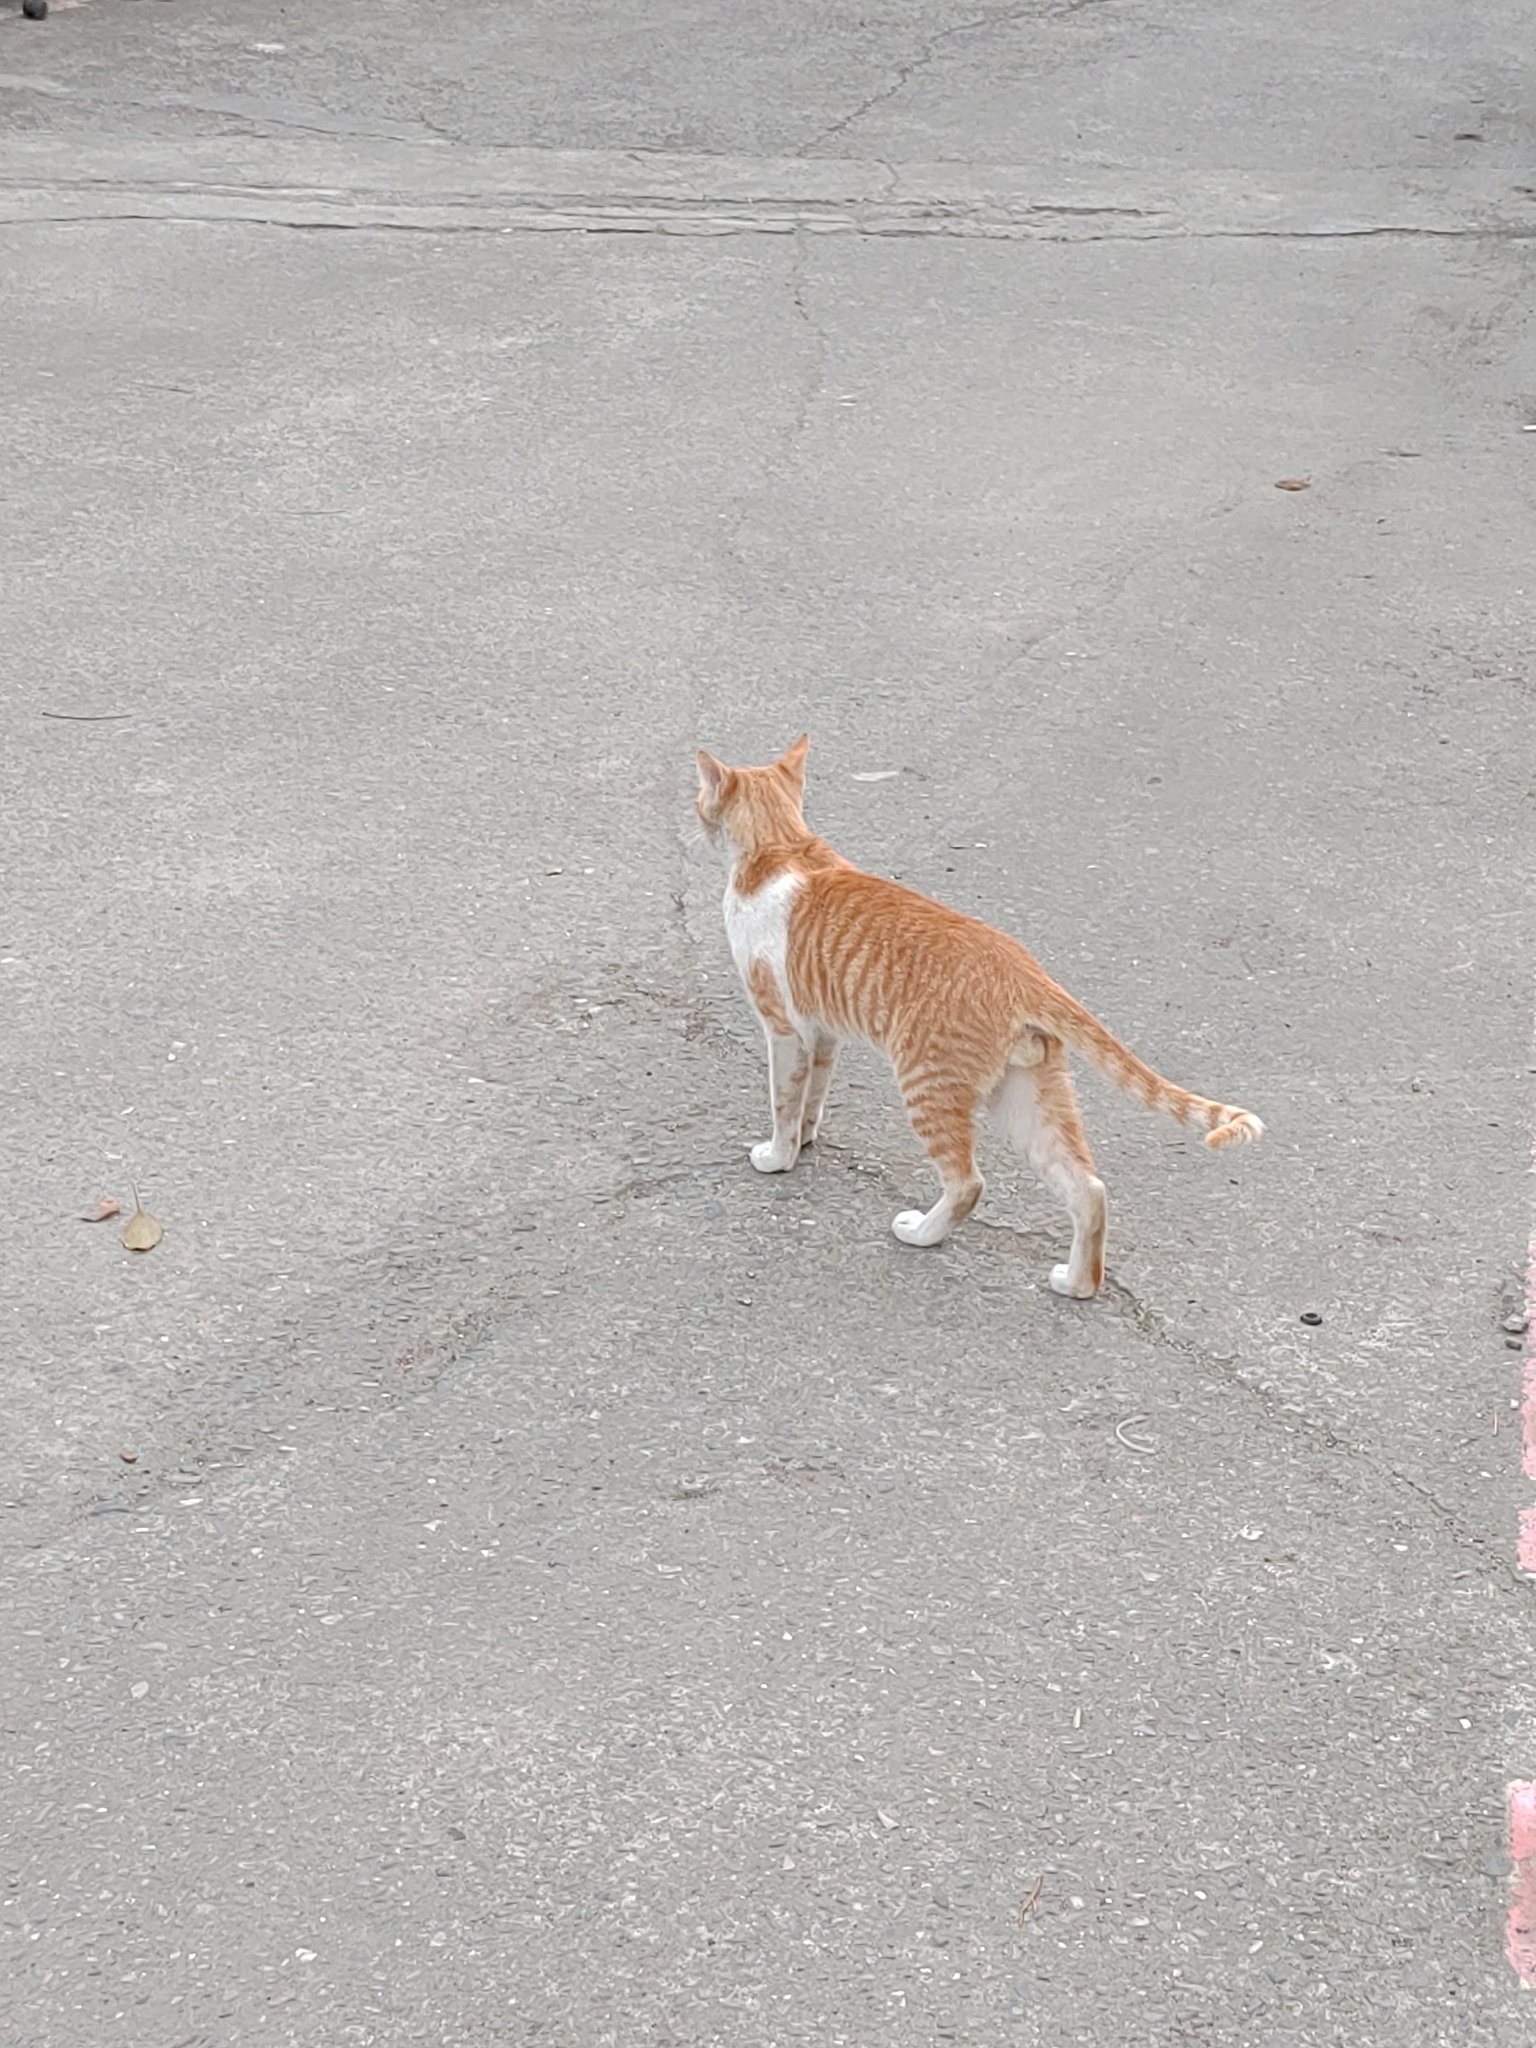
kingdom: Animalia
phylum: Chordata
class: Mammalia
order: Carnivora
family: Felidae
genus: Felis
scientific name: Felis catus
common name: Domestic cat
